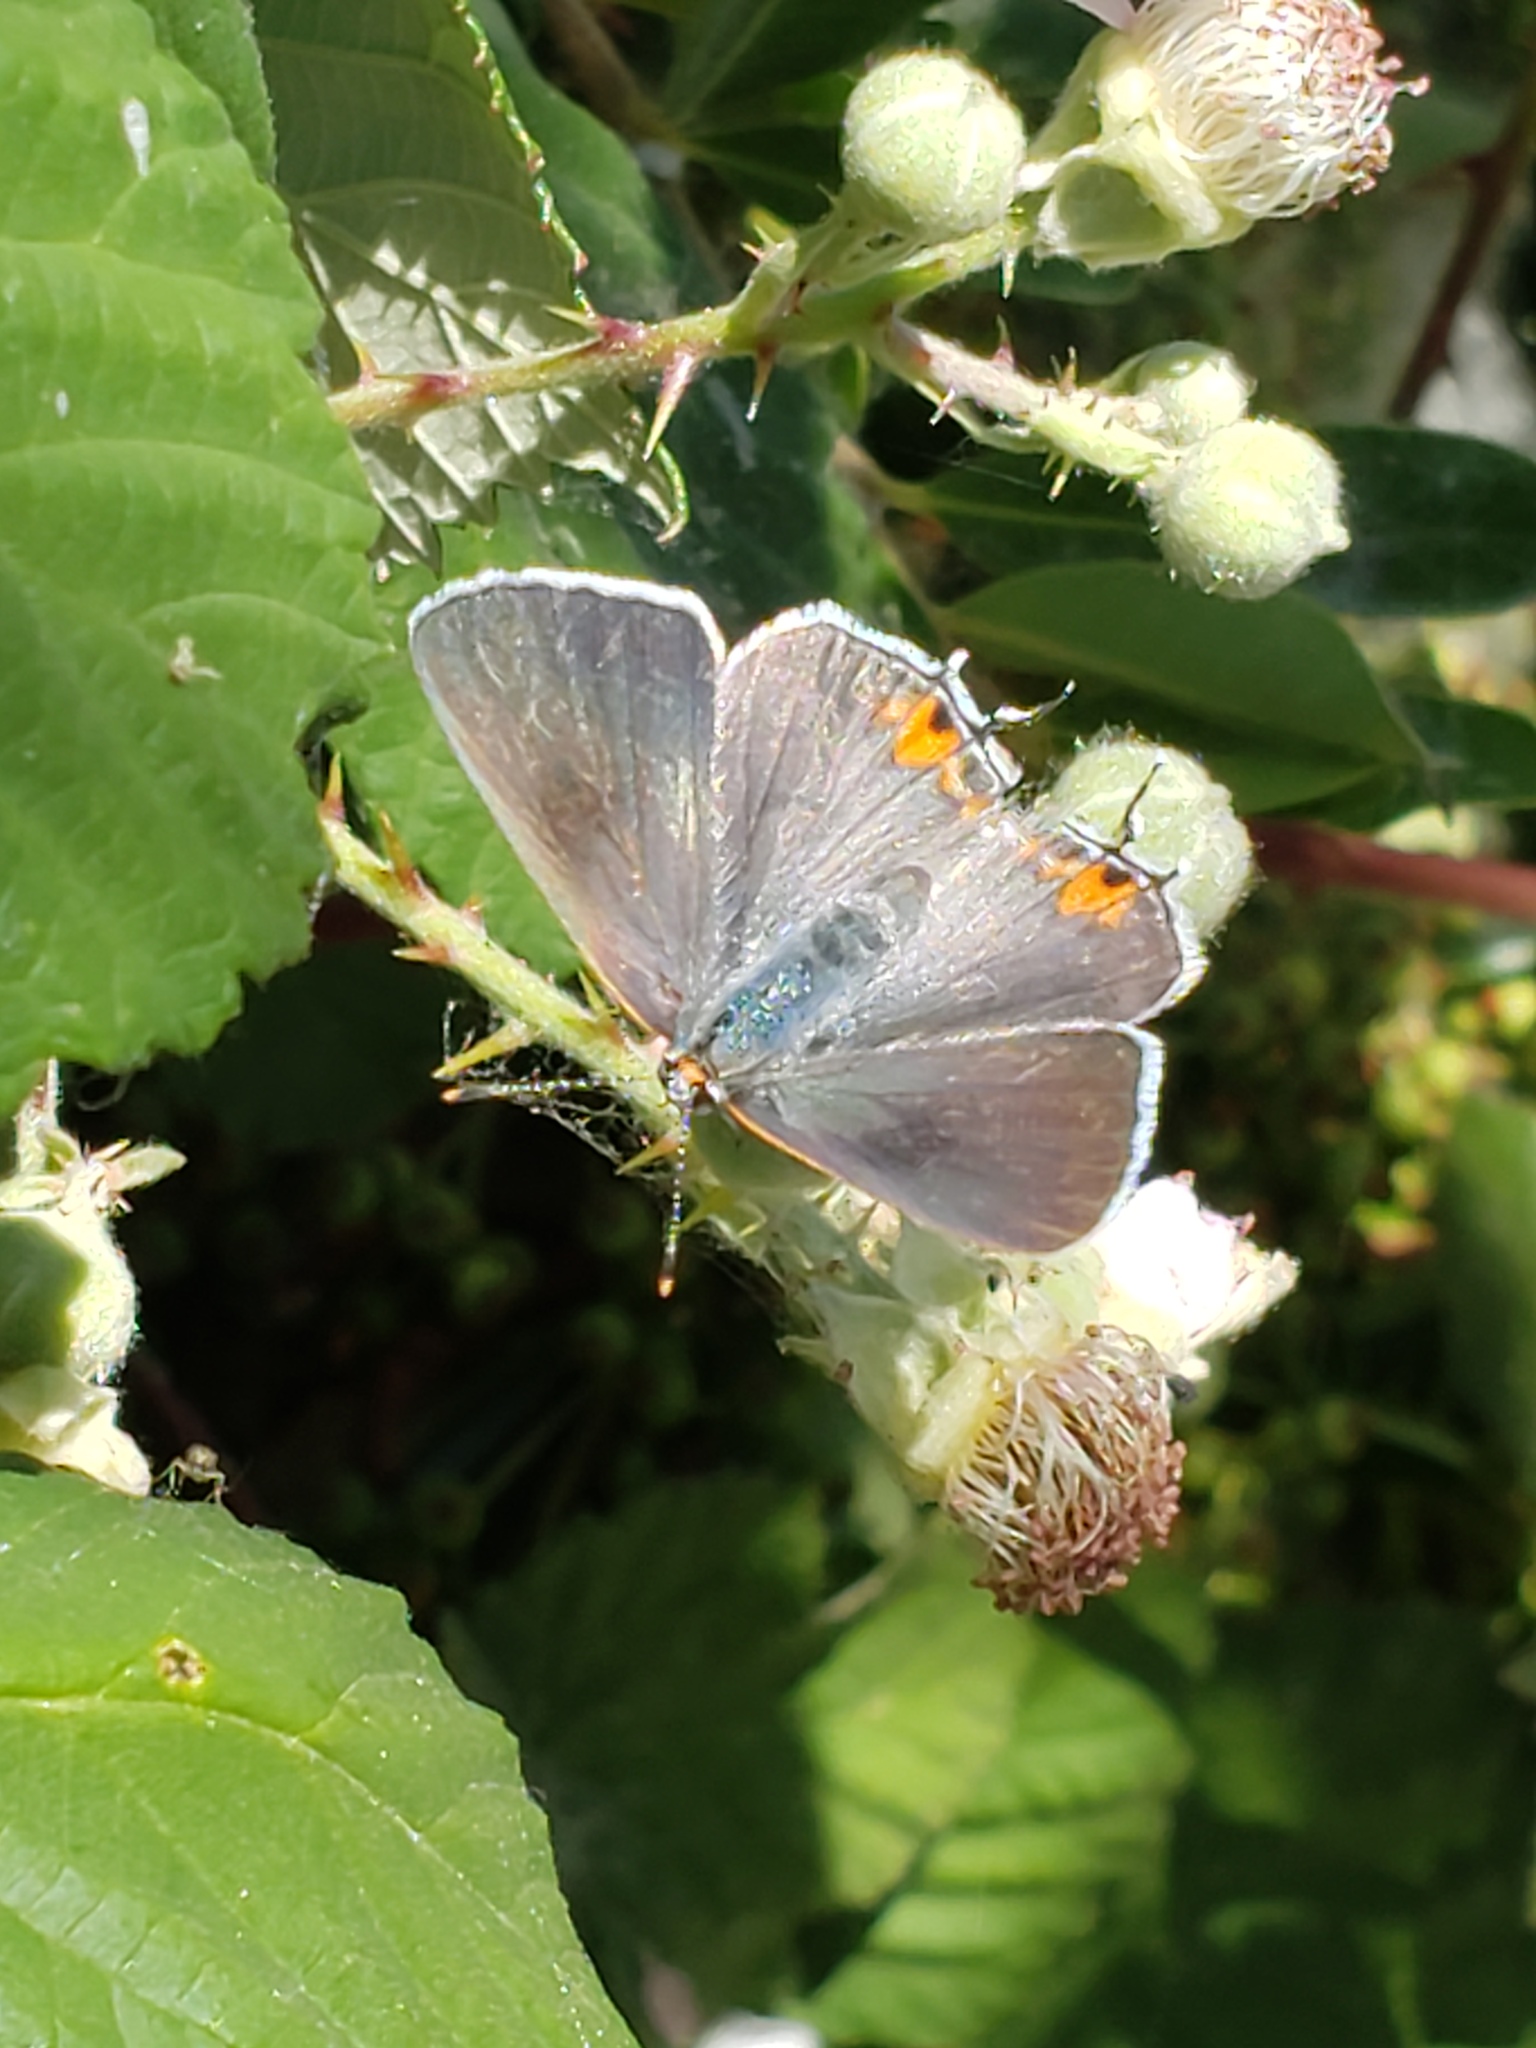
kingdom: Animalia
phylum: Arthropoda
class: Insecta
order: Lepidoptera
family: Lycaenidae
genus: Strymon
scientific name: Strymon melinus
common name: Gray hairstreak
